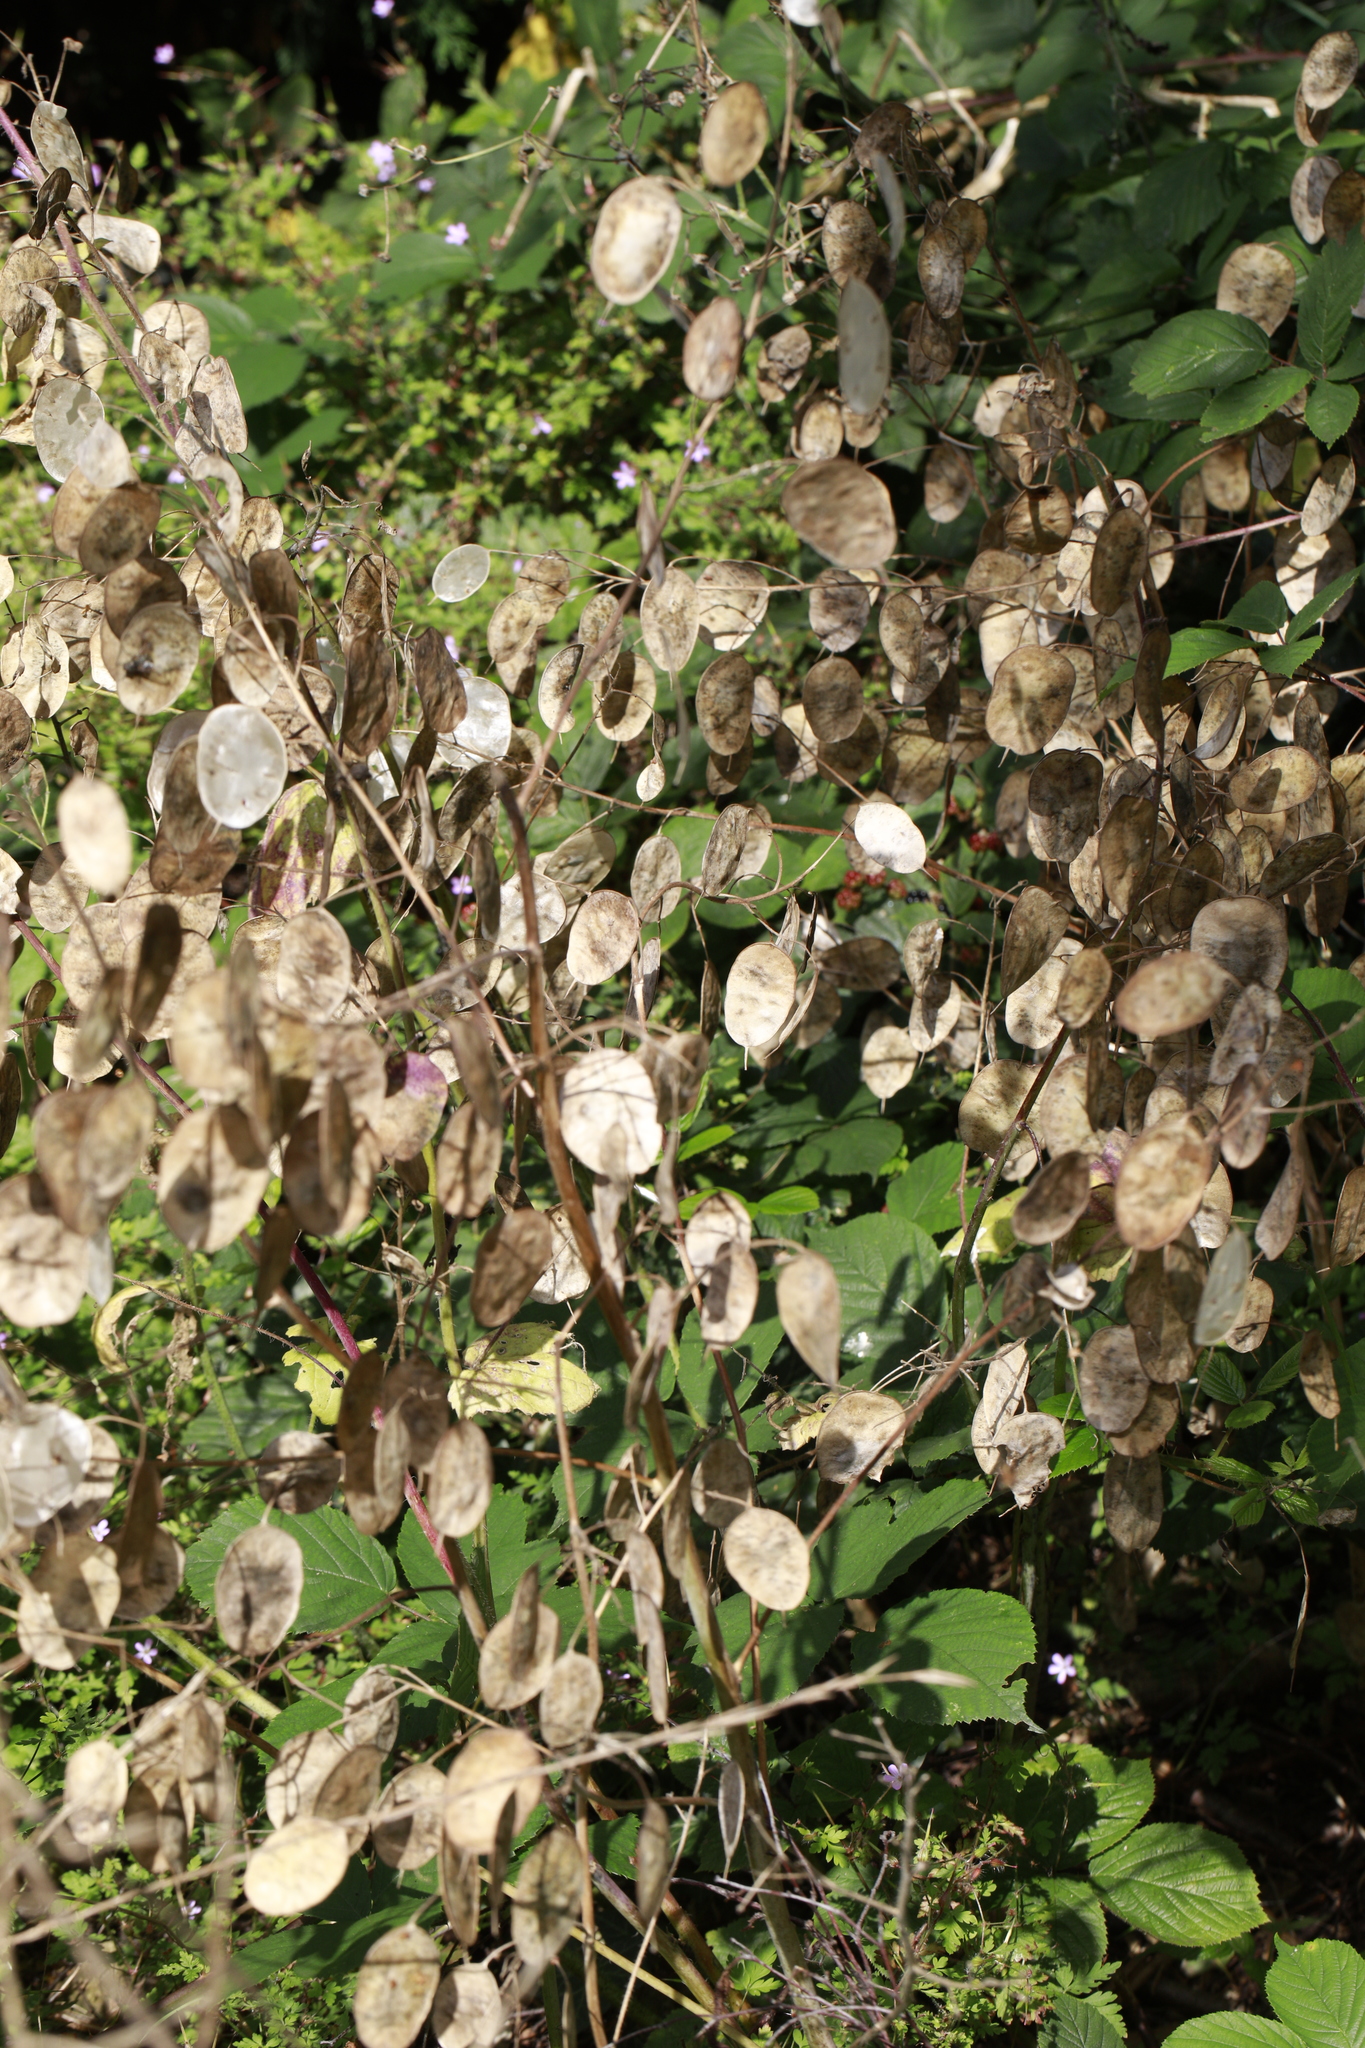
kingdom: Plantae
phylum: Tracheophyta
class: Magnoliopsida
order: Brassicales
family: Brassicaceae
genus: Lunaria
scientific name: Lunaria annua
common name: Honesty
